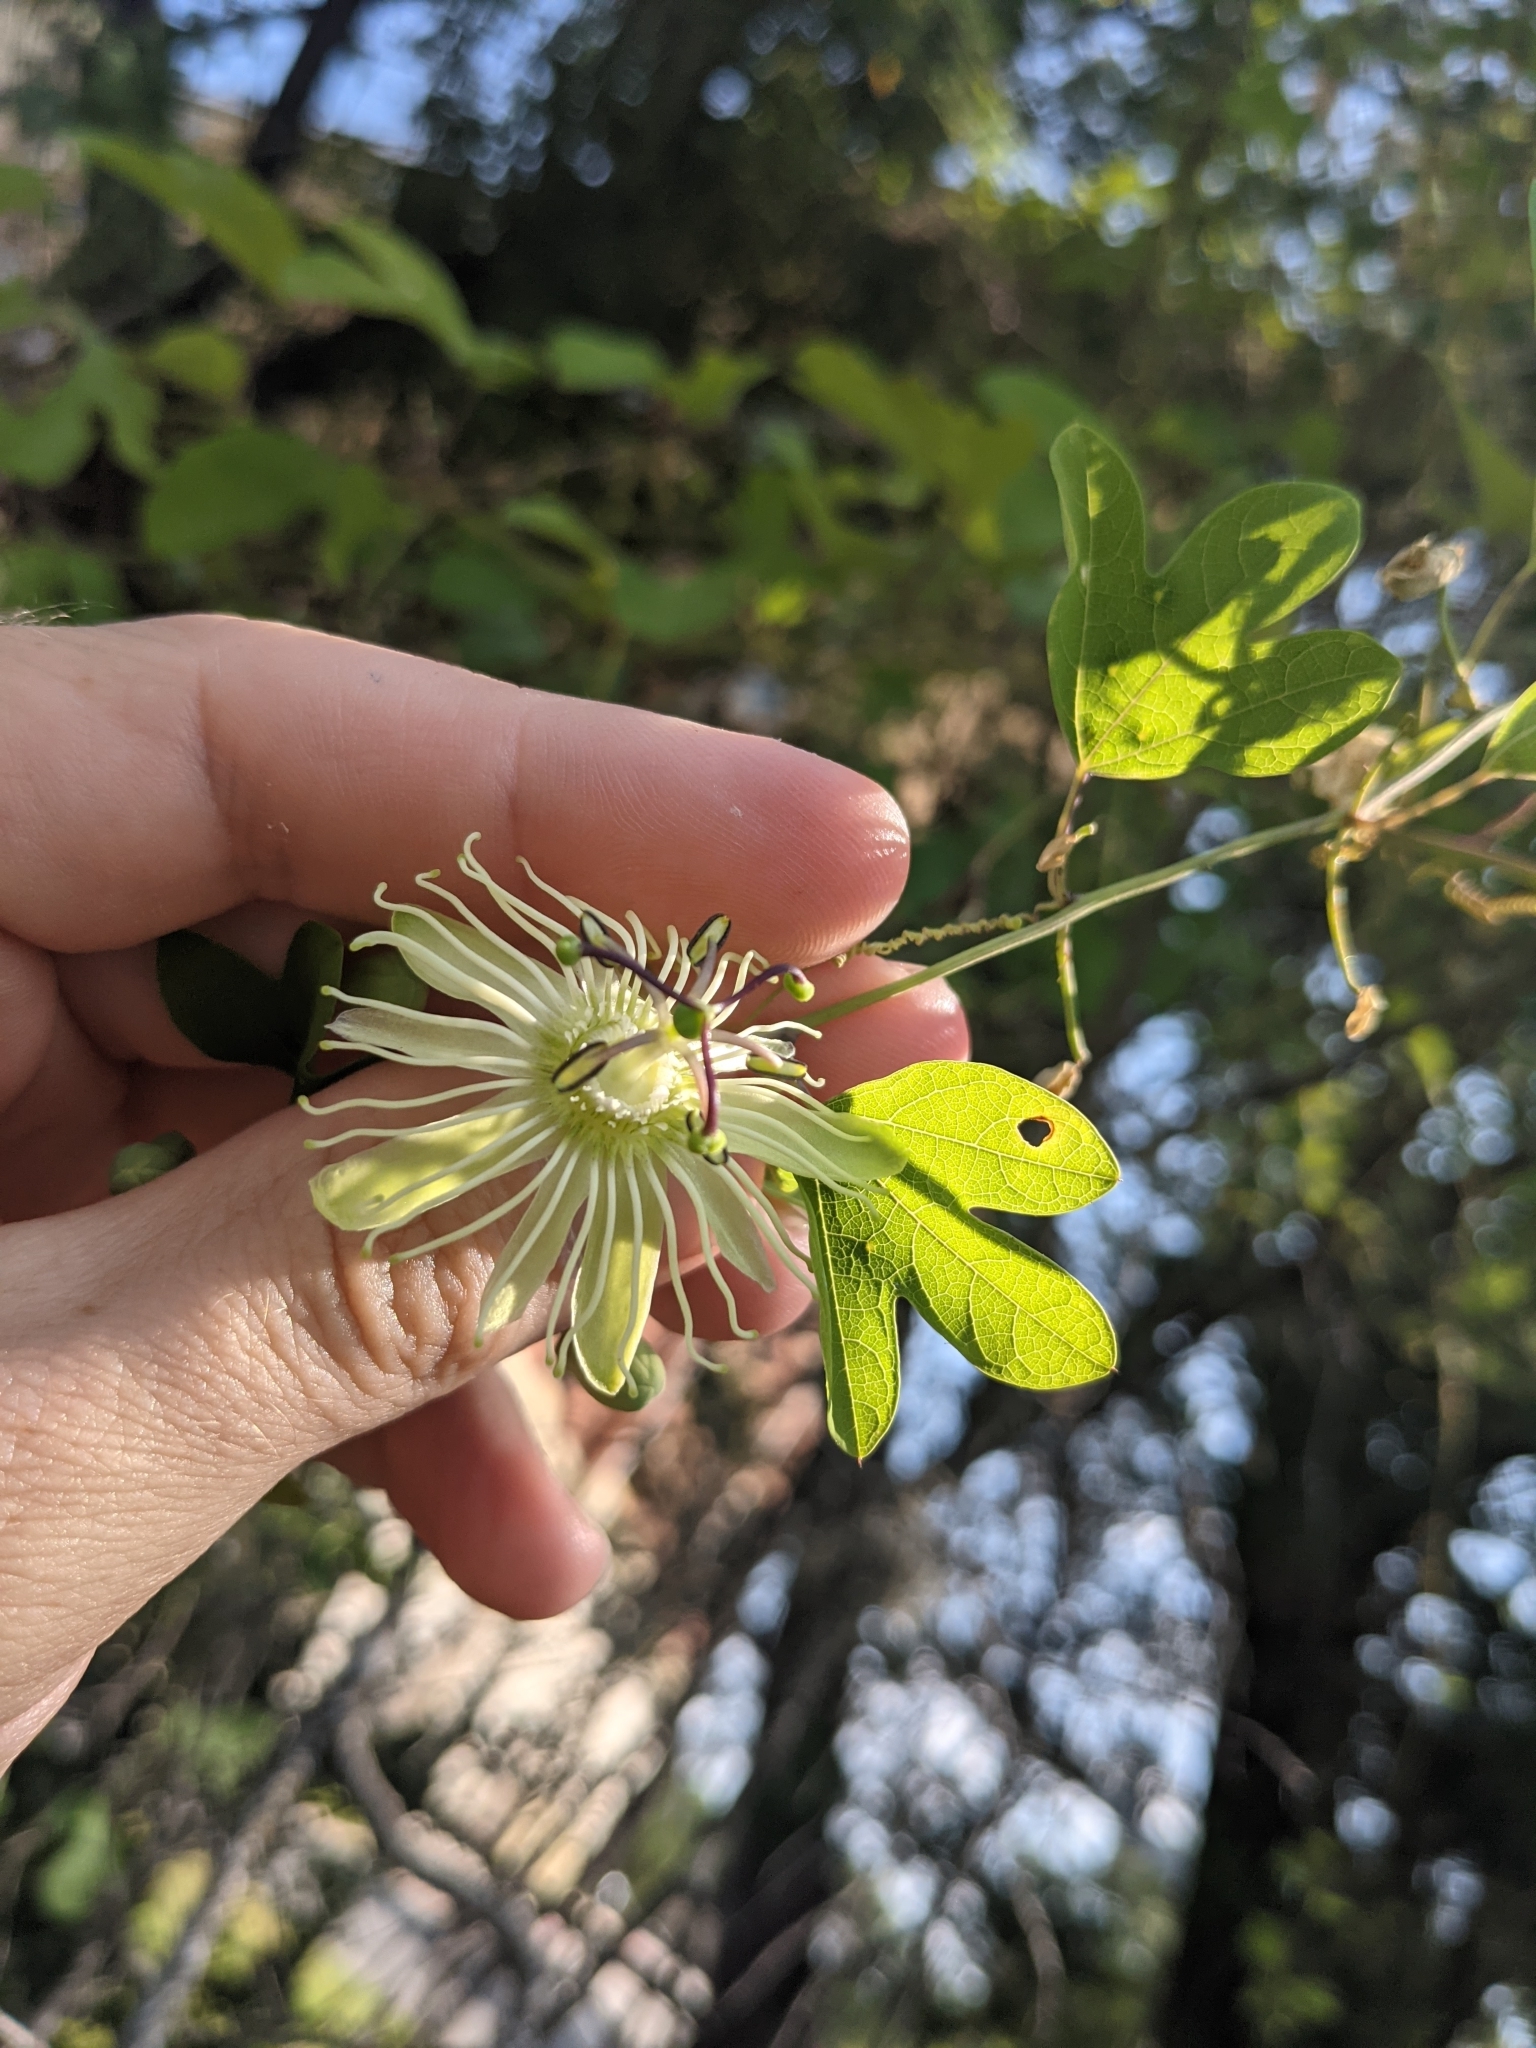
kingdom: Plantae
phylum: Tracheophyta
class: Magnoliopsida
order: Malpighiales
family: Passifloraceae
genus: Passiflora
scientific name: Passiflora affinis
